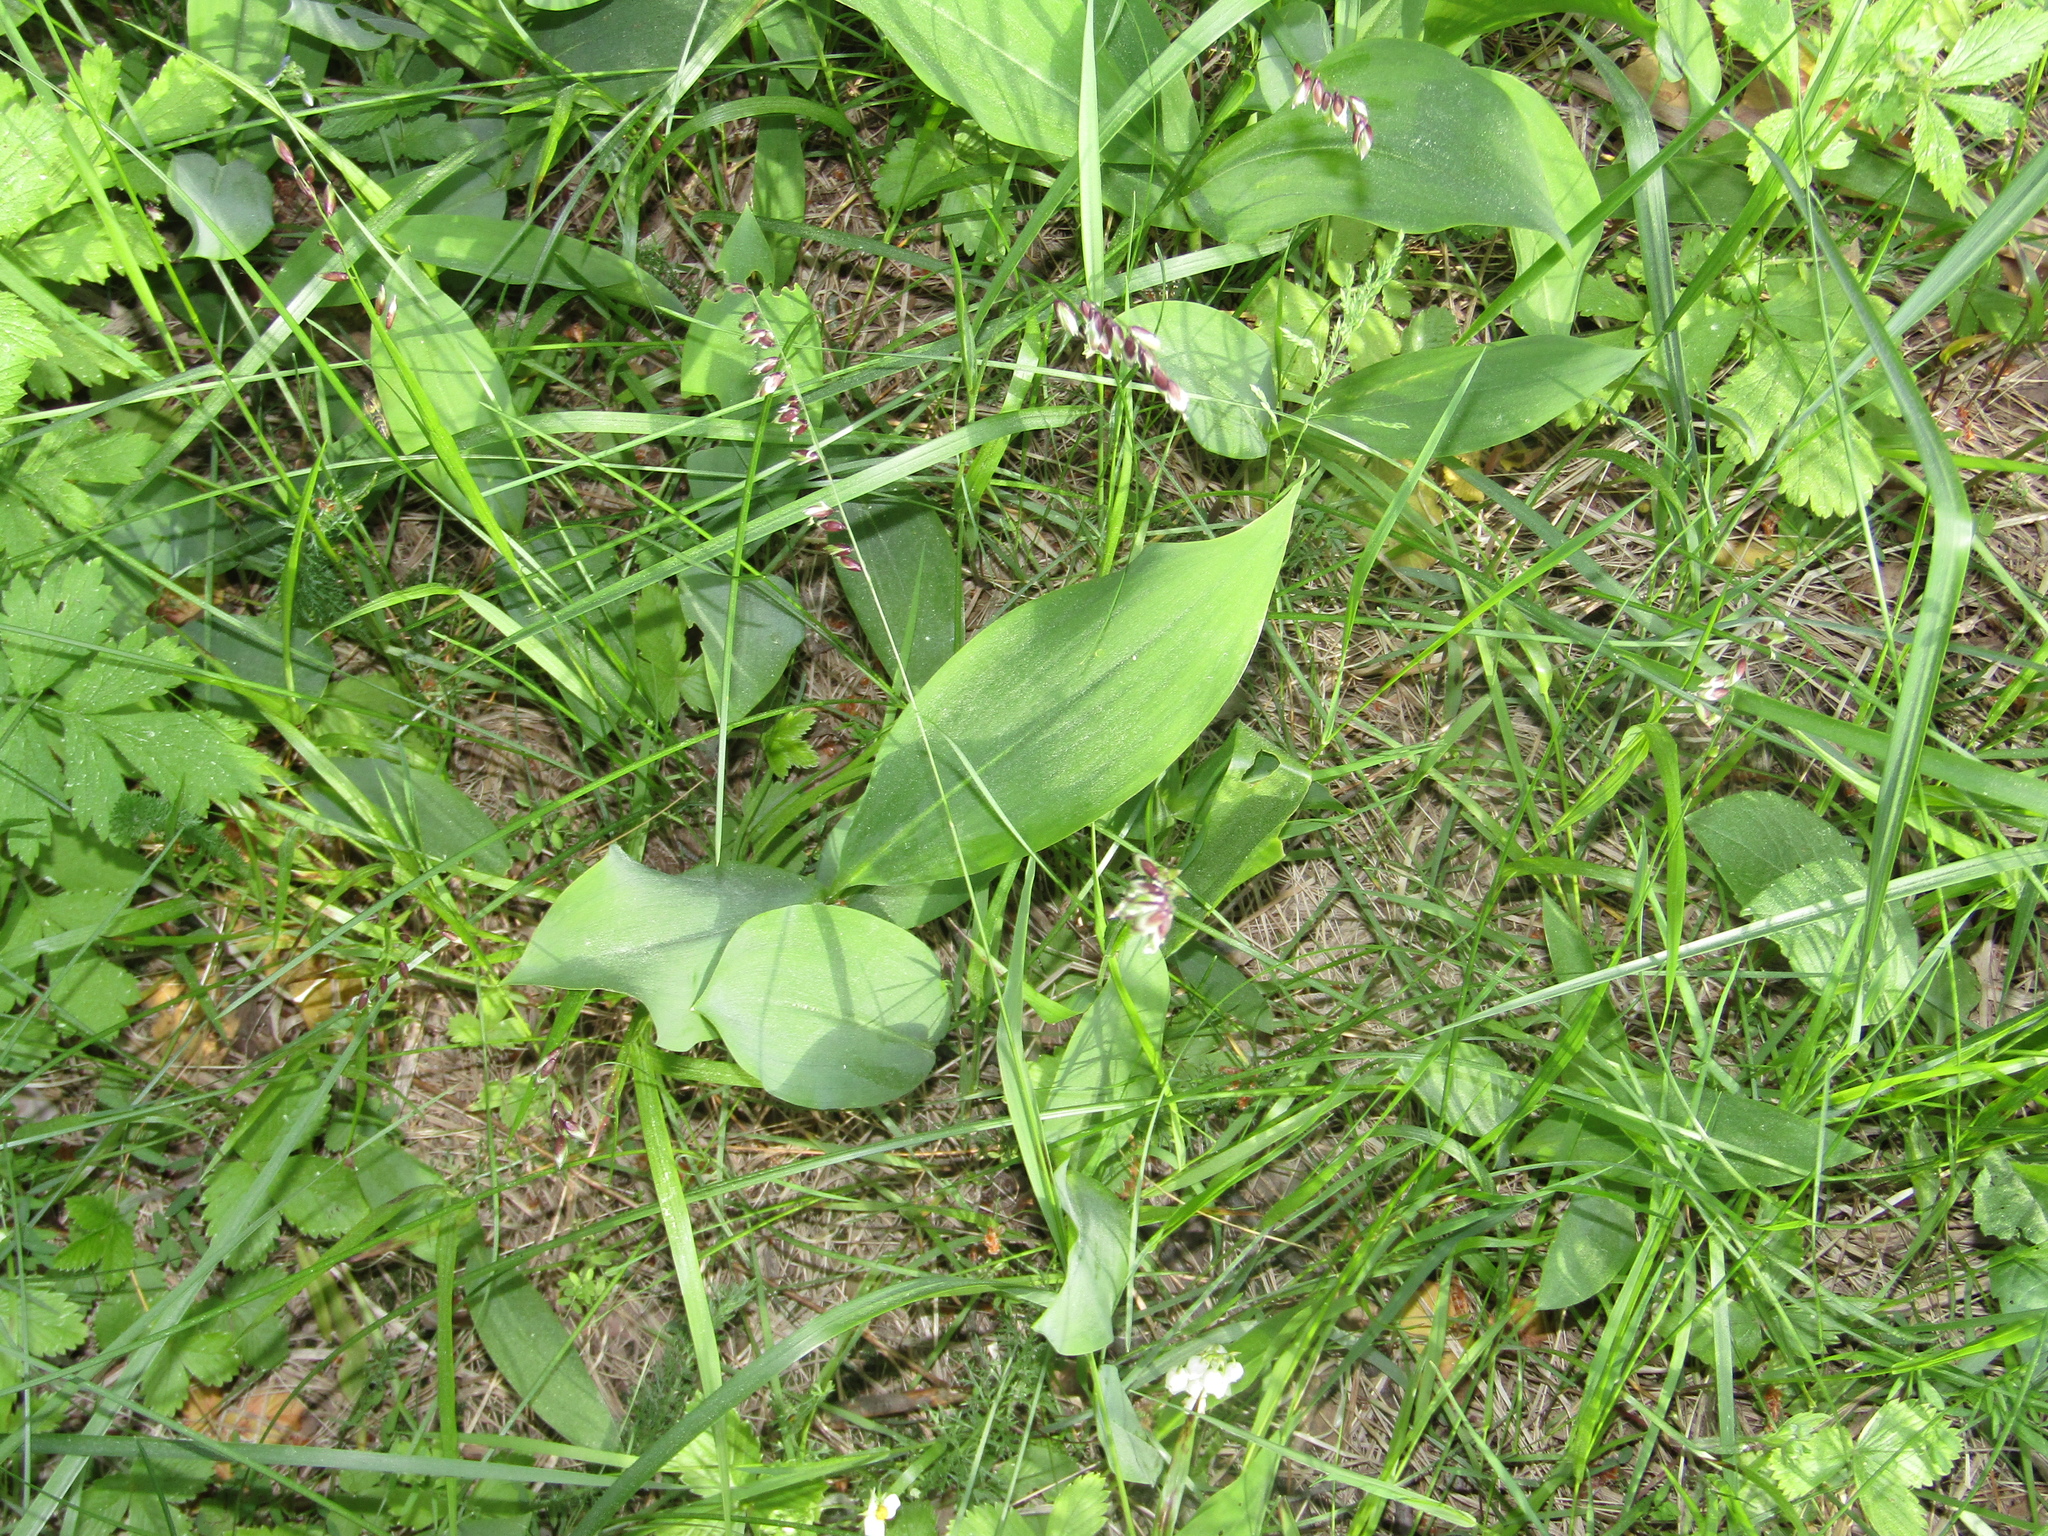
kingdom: Plantae
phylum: Tracheophyta
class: Liliopsida
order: Poales
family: Poaceae
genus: Melica
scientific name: Melica nutans
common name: Mountain melick
